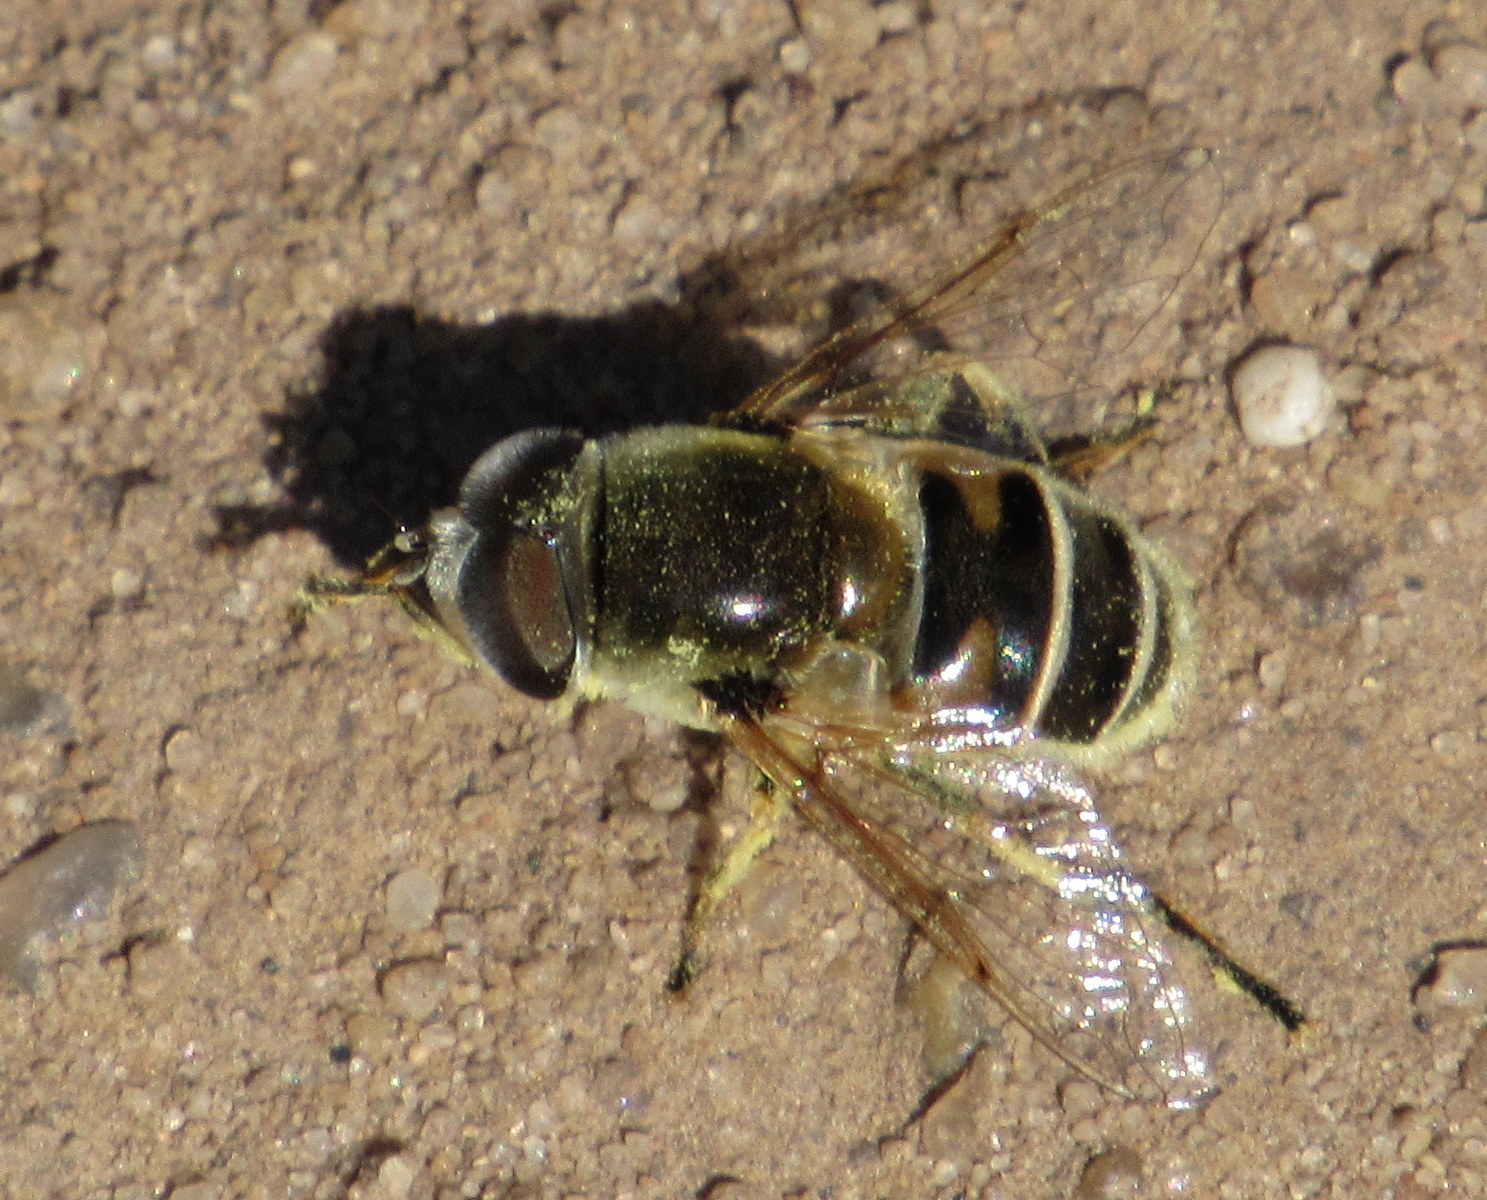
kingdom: Animalia
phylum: Arthropoda
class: Insecta
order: Diptera
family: Syrphidae
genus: Eristalis
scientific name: Eristalis stipator
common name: Yellow-shouldered drone fly
